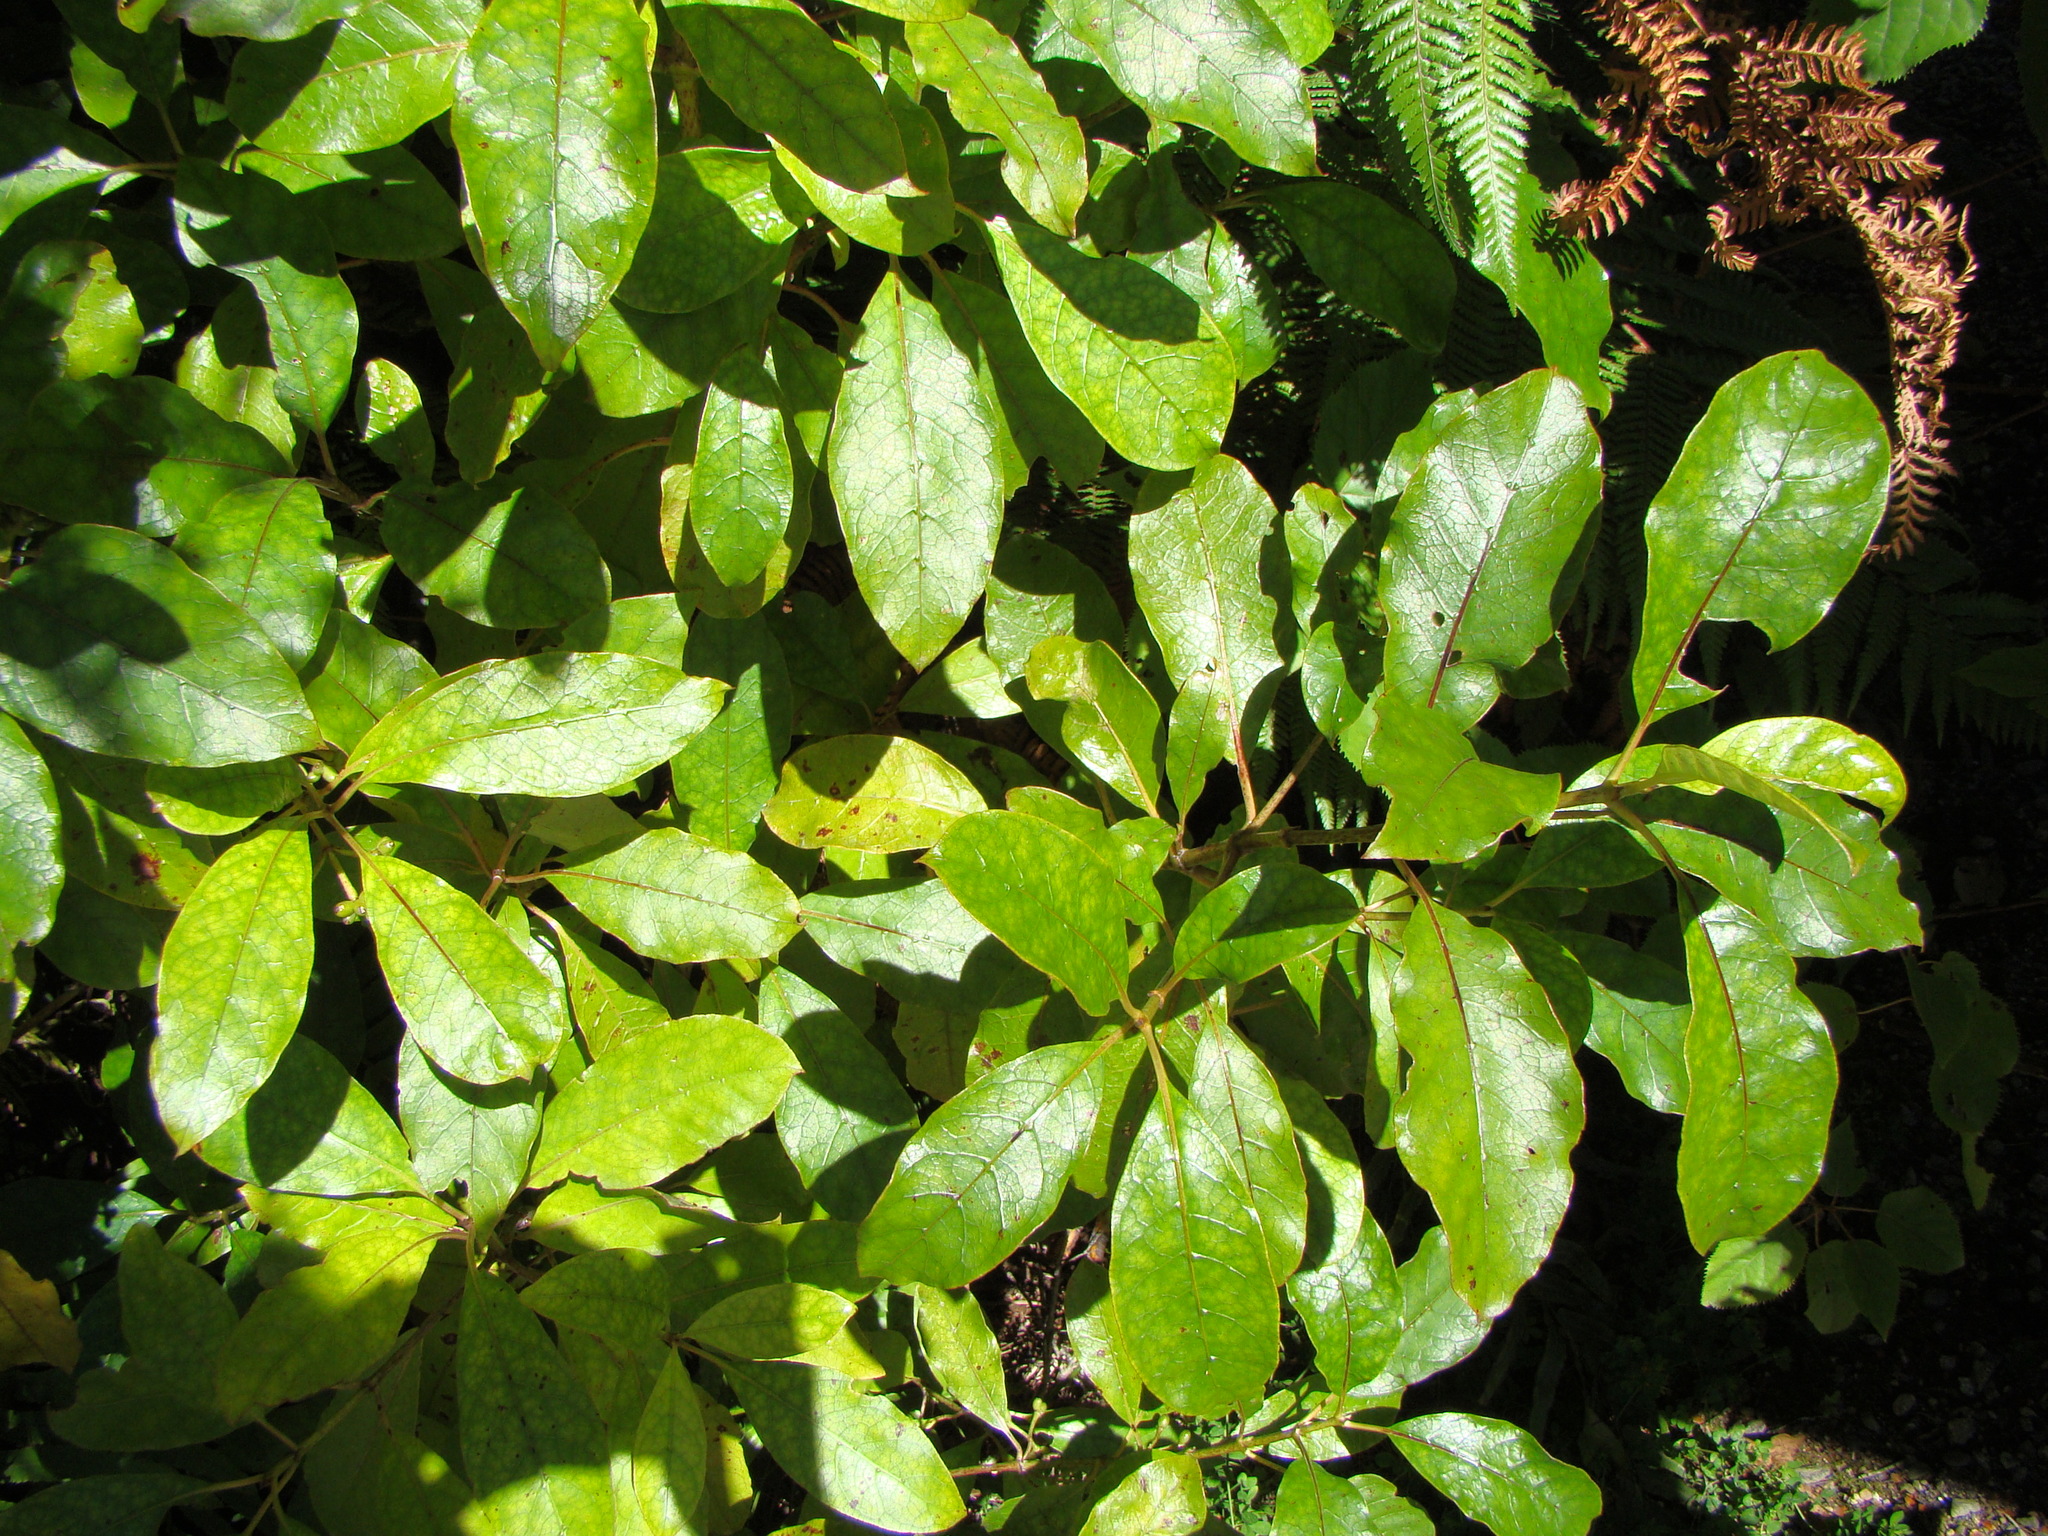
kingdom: Plantae
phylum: Tracheophyta
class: Magnoliopsida
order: Gentianales
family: Rubiaceae
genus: Coprosma
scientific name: Coprosma autumnalis
